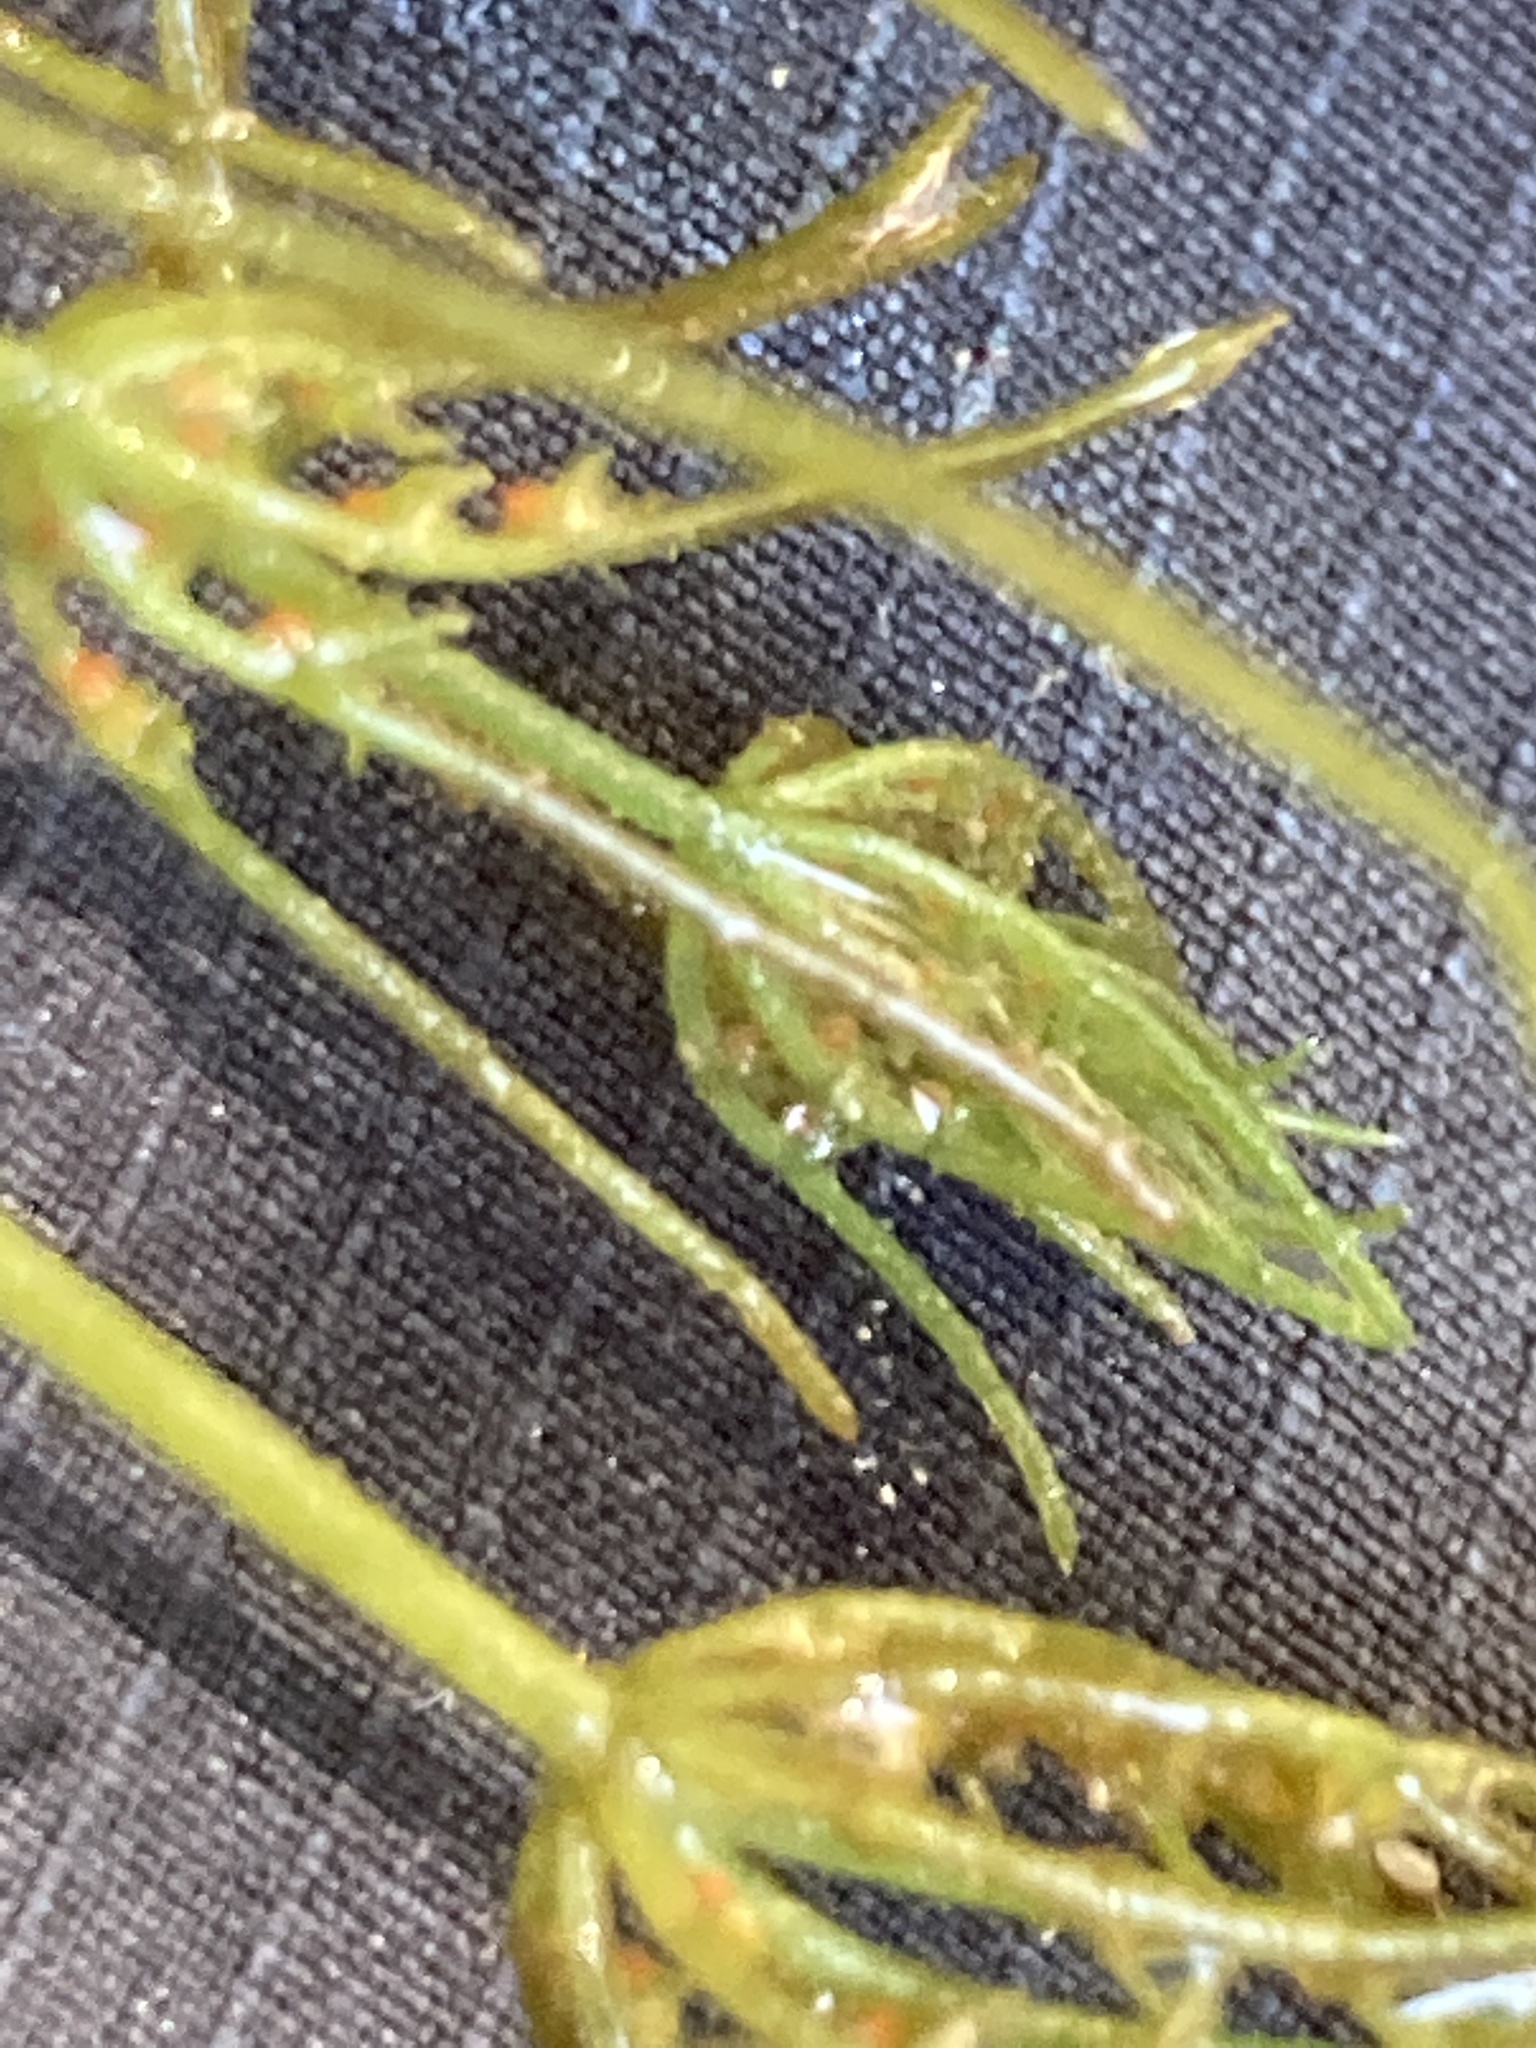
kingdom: Plantae
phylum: Charophyta
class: Charophyceae
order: Charales
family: Characeae
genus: Chara
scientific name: Chara vulgaris
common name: Common stonewort
